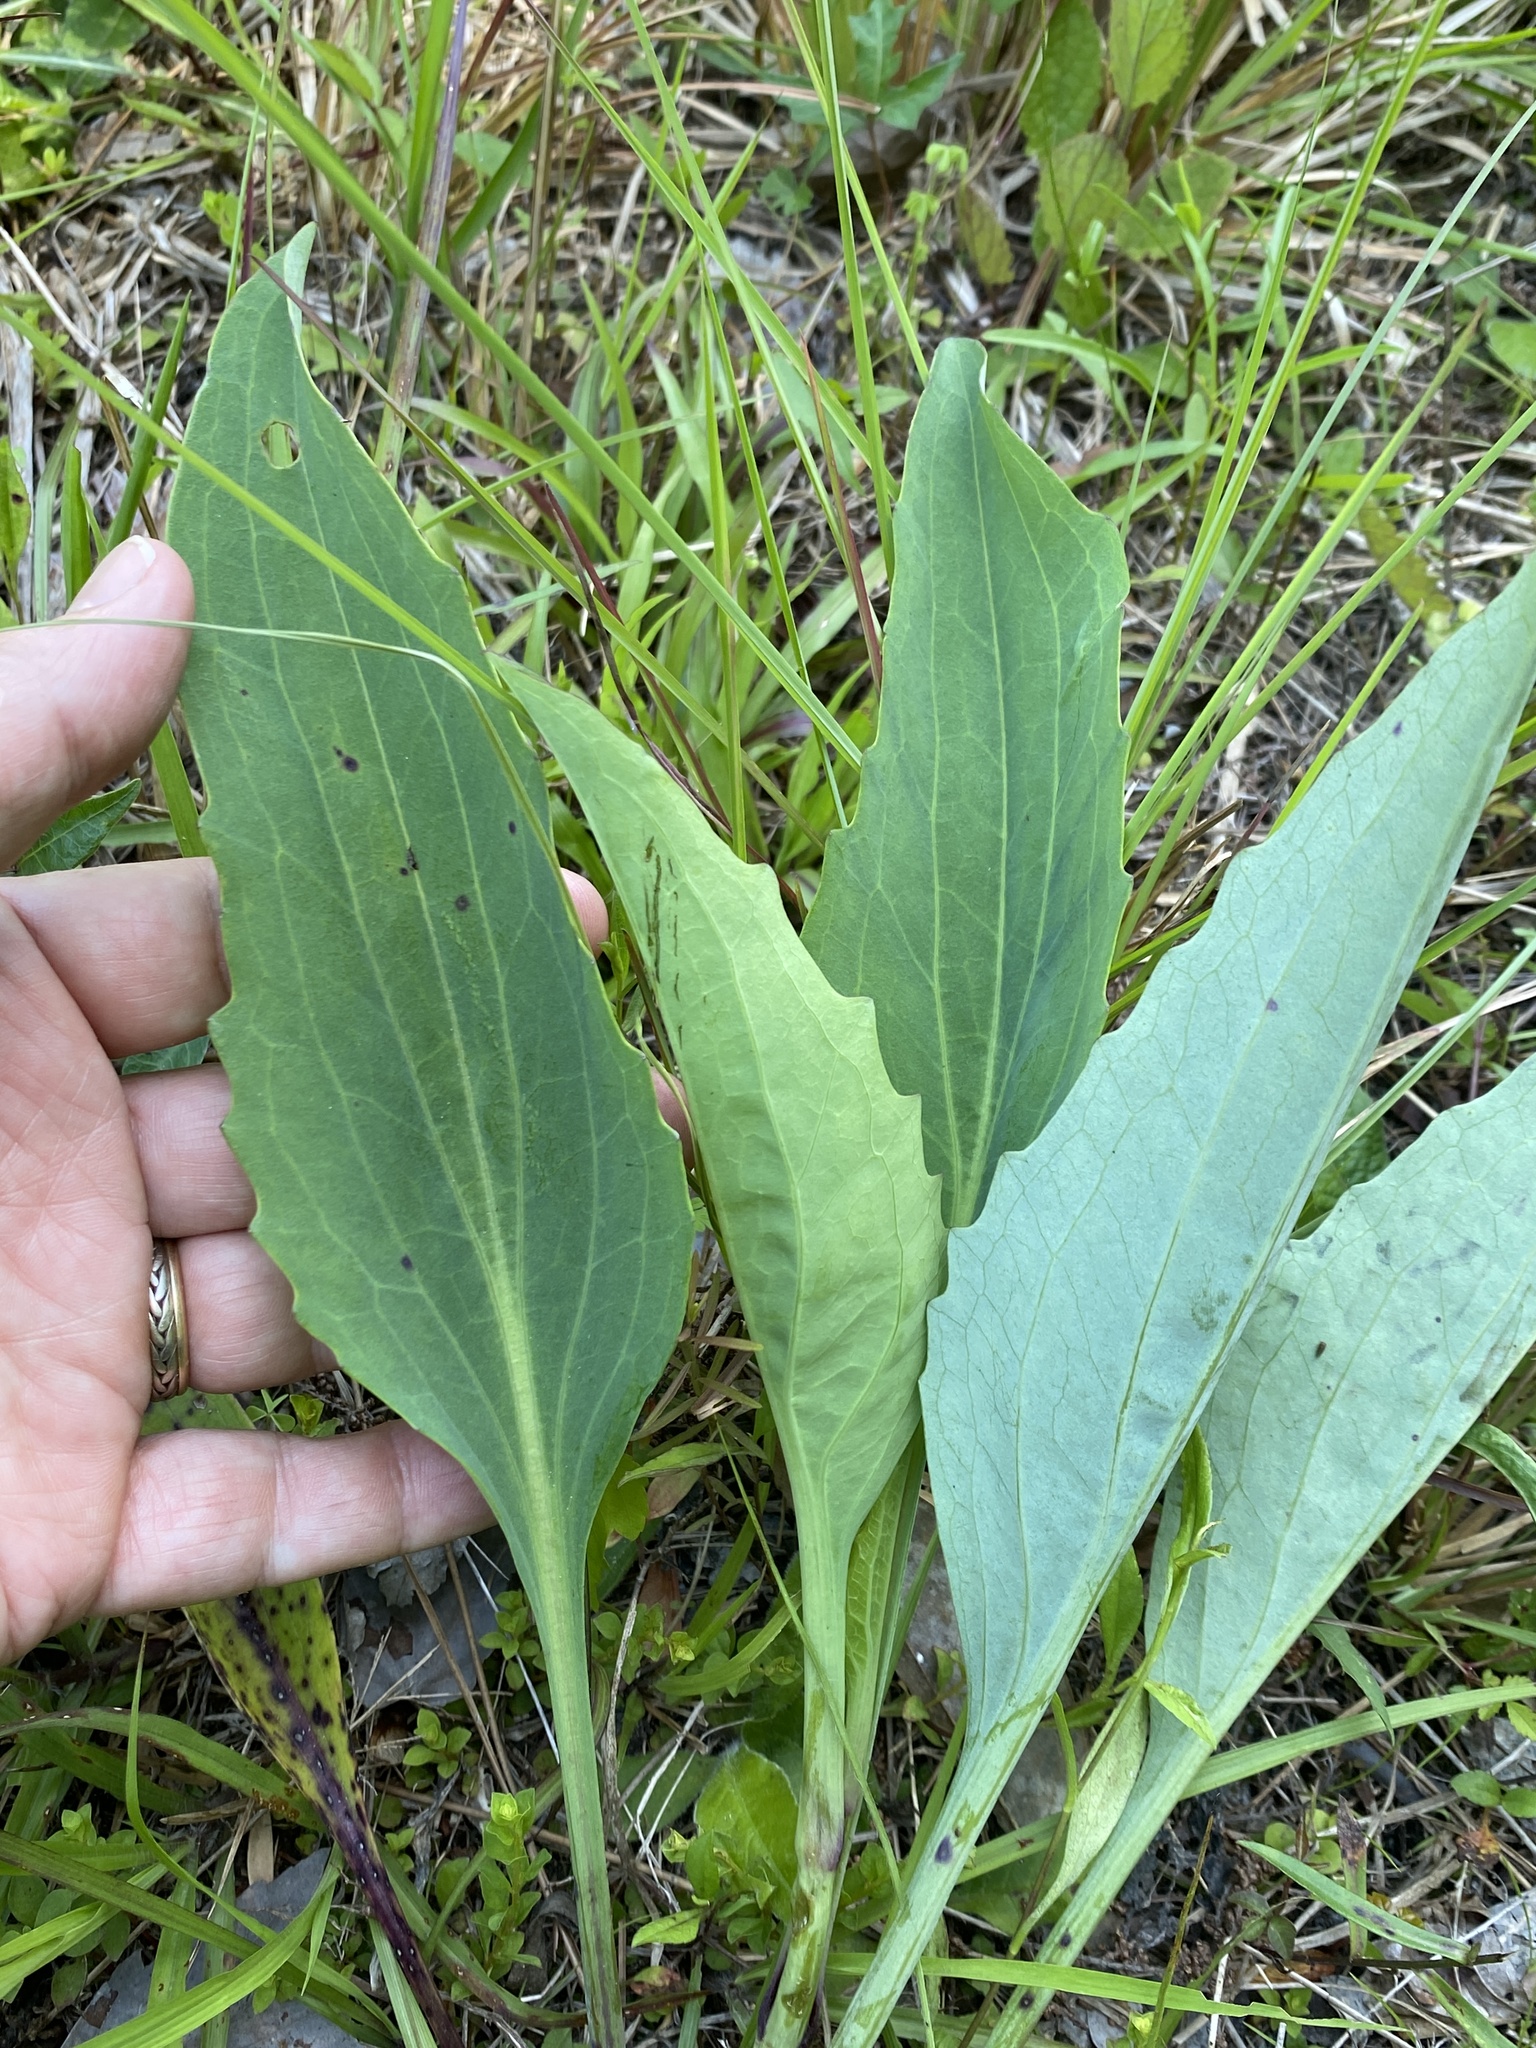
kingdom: Plantae
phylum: Tracheophyta
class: Magnoliopsida
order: Asterales
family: Asteraceae
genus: Arnoglossum
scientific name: Arnoglossum ovatum
